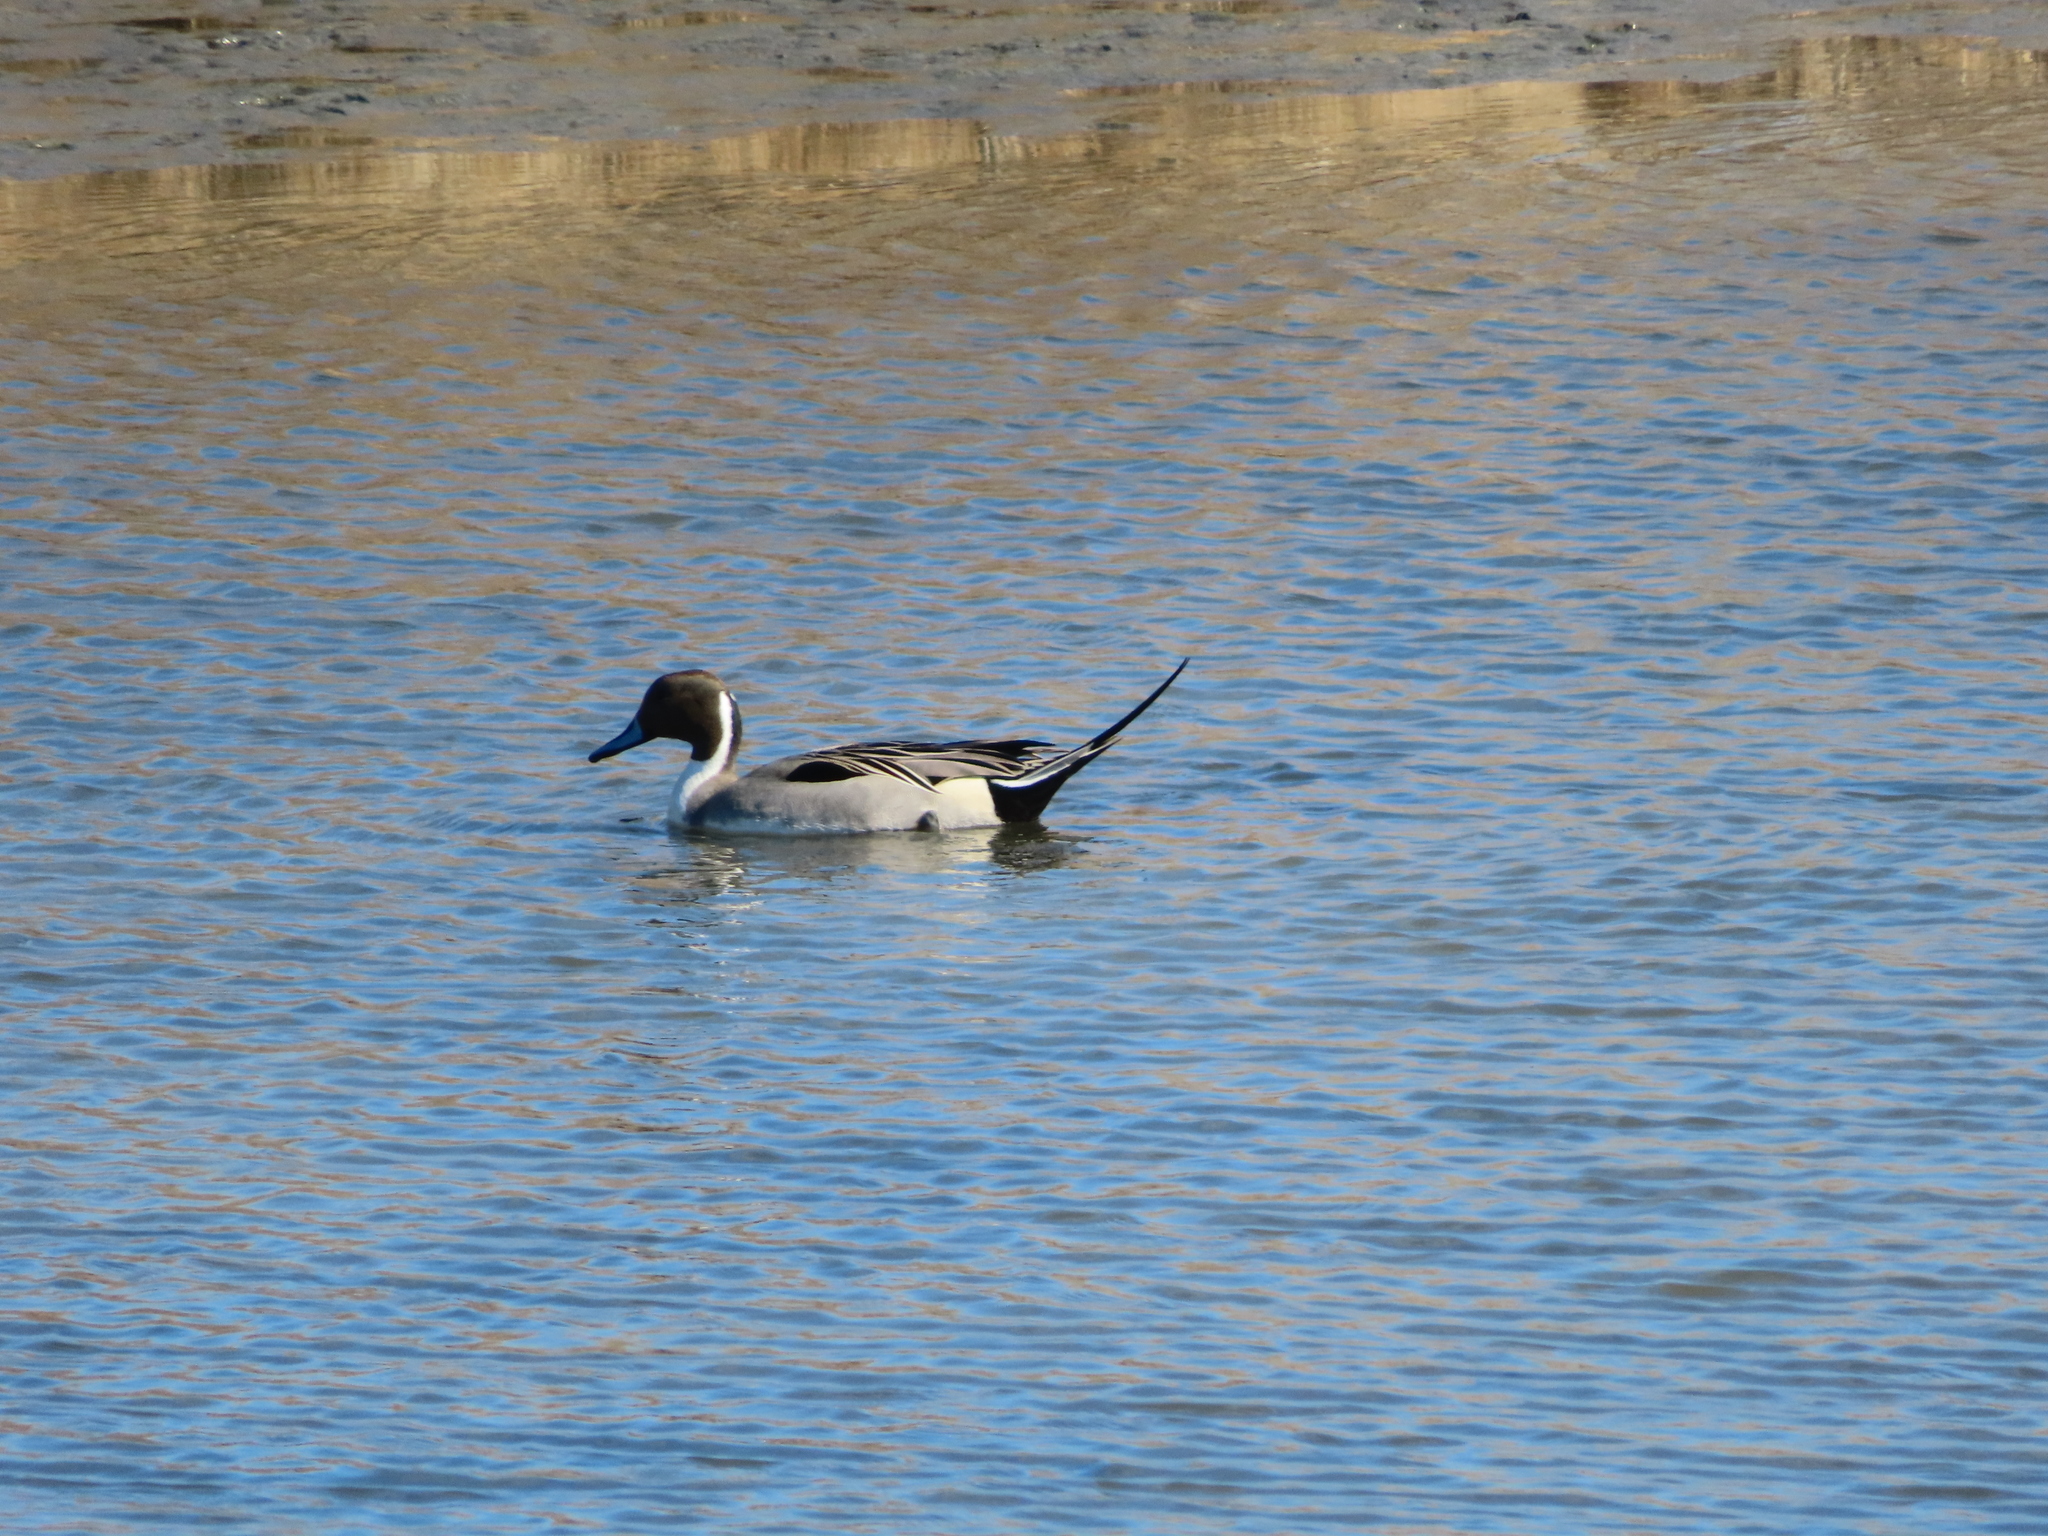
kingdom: Animalia
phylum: Chordata
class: Aves
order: Anseriformes
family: Anatidae
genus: Anas
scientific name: Anas acuta
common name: Northern pintail
